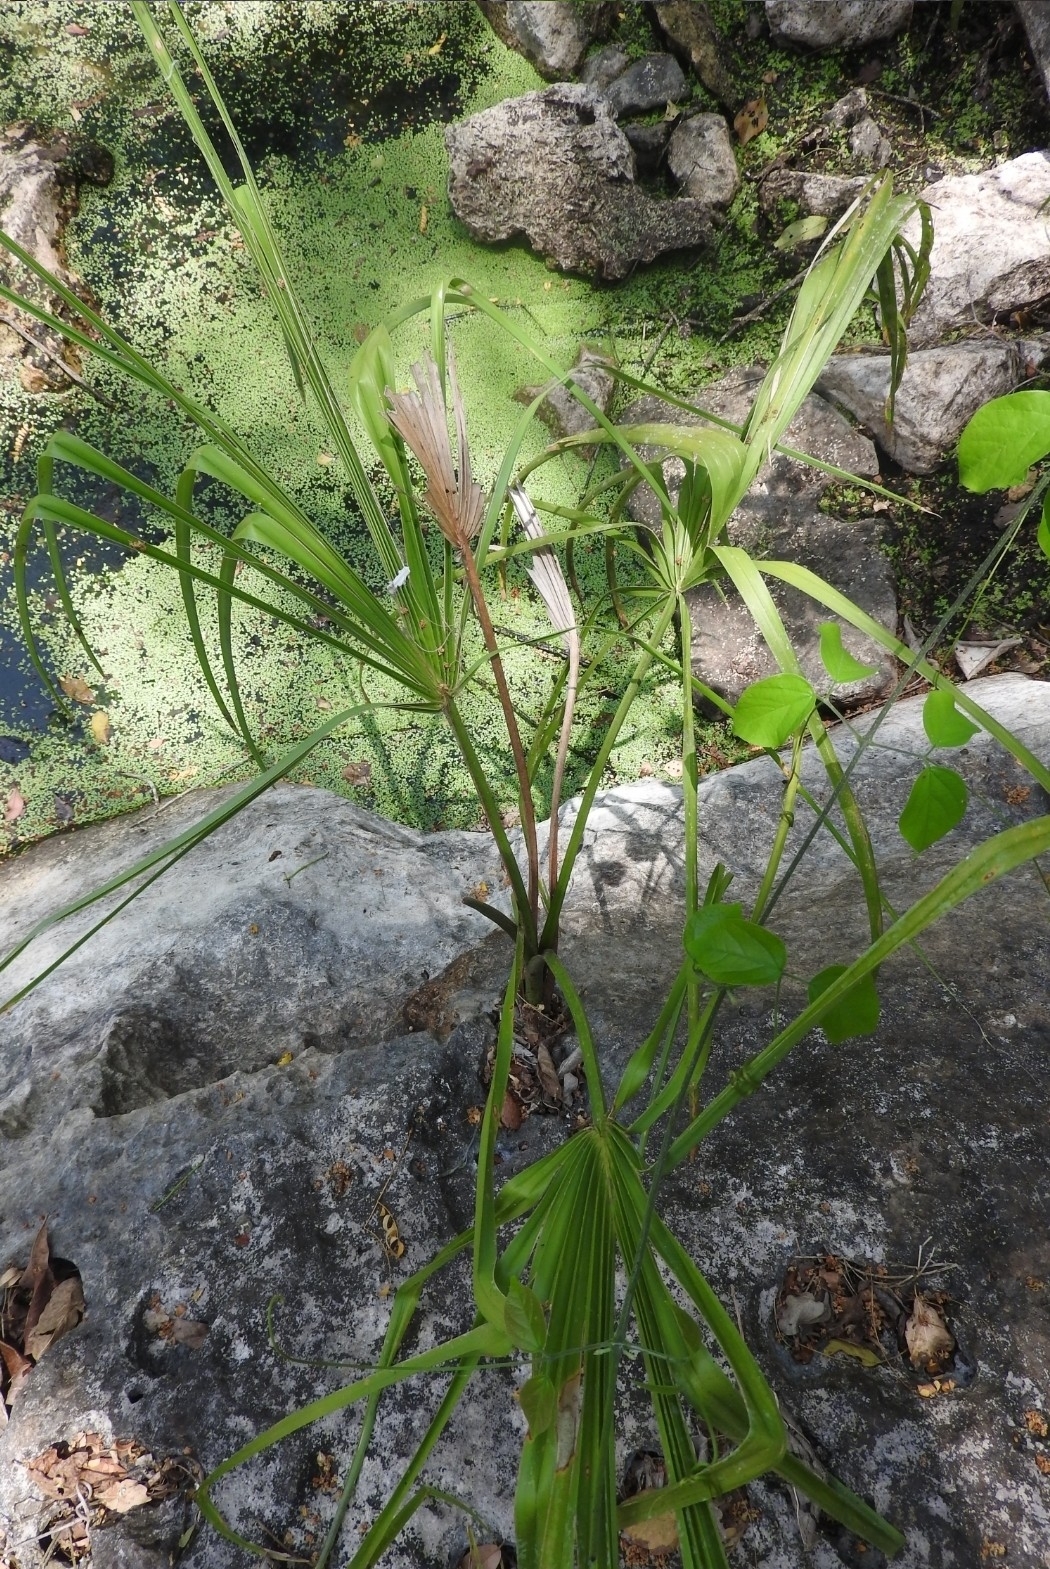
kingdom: Plantae
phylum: Tracheophyta
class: Liliopsida
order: Arecales
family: Arecaceae
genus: Sabal
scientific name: Sabal yapa
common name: Thatch palm
